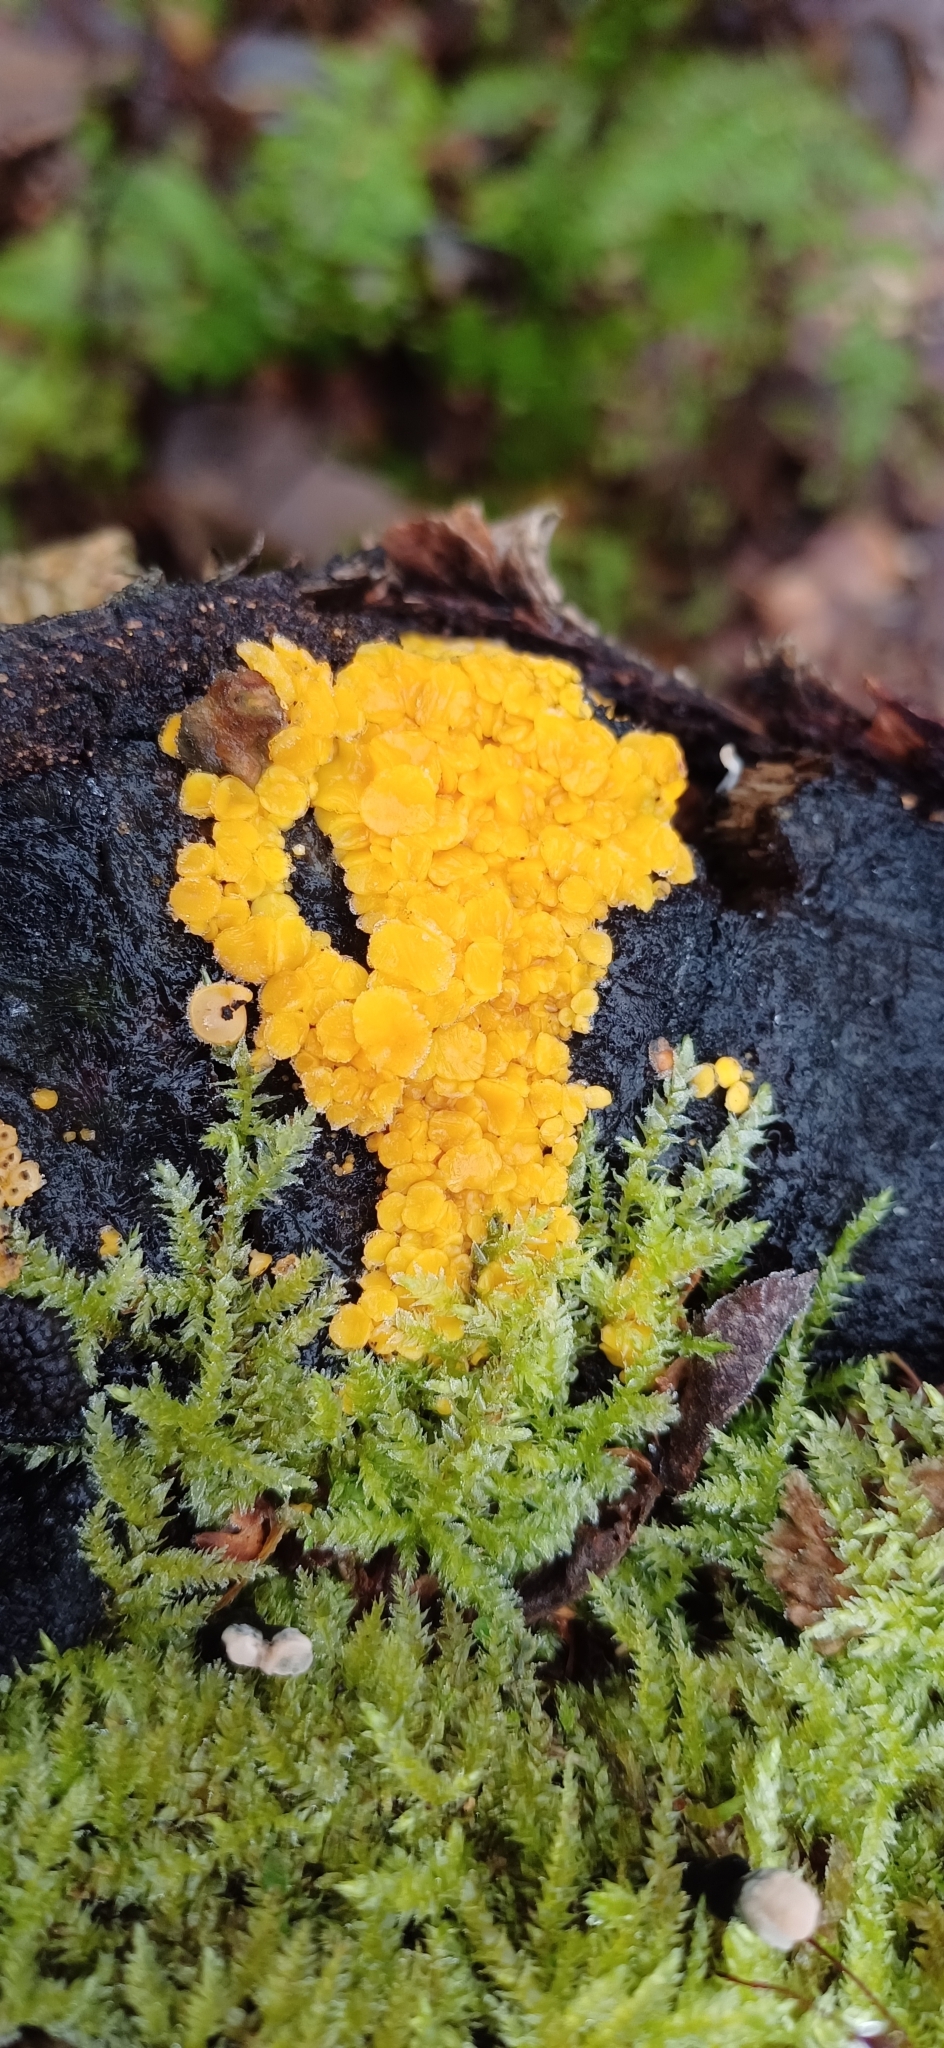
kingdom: Fungi
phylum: Ascomycota
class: Leotiomycetes
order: Helotiales
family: Pezizellaceae
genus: Calycina
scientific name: Calycina citrina
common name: Yellow fairy cups
